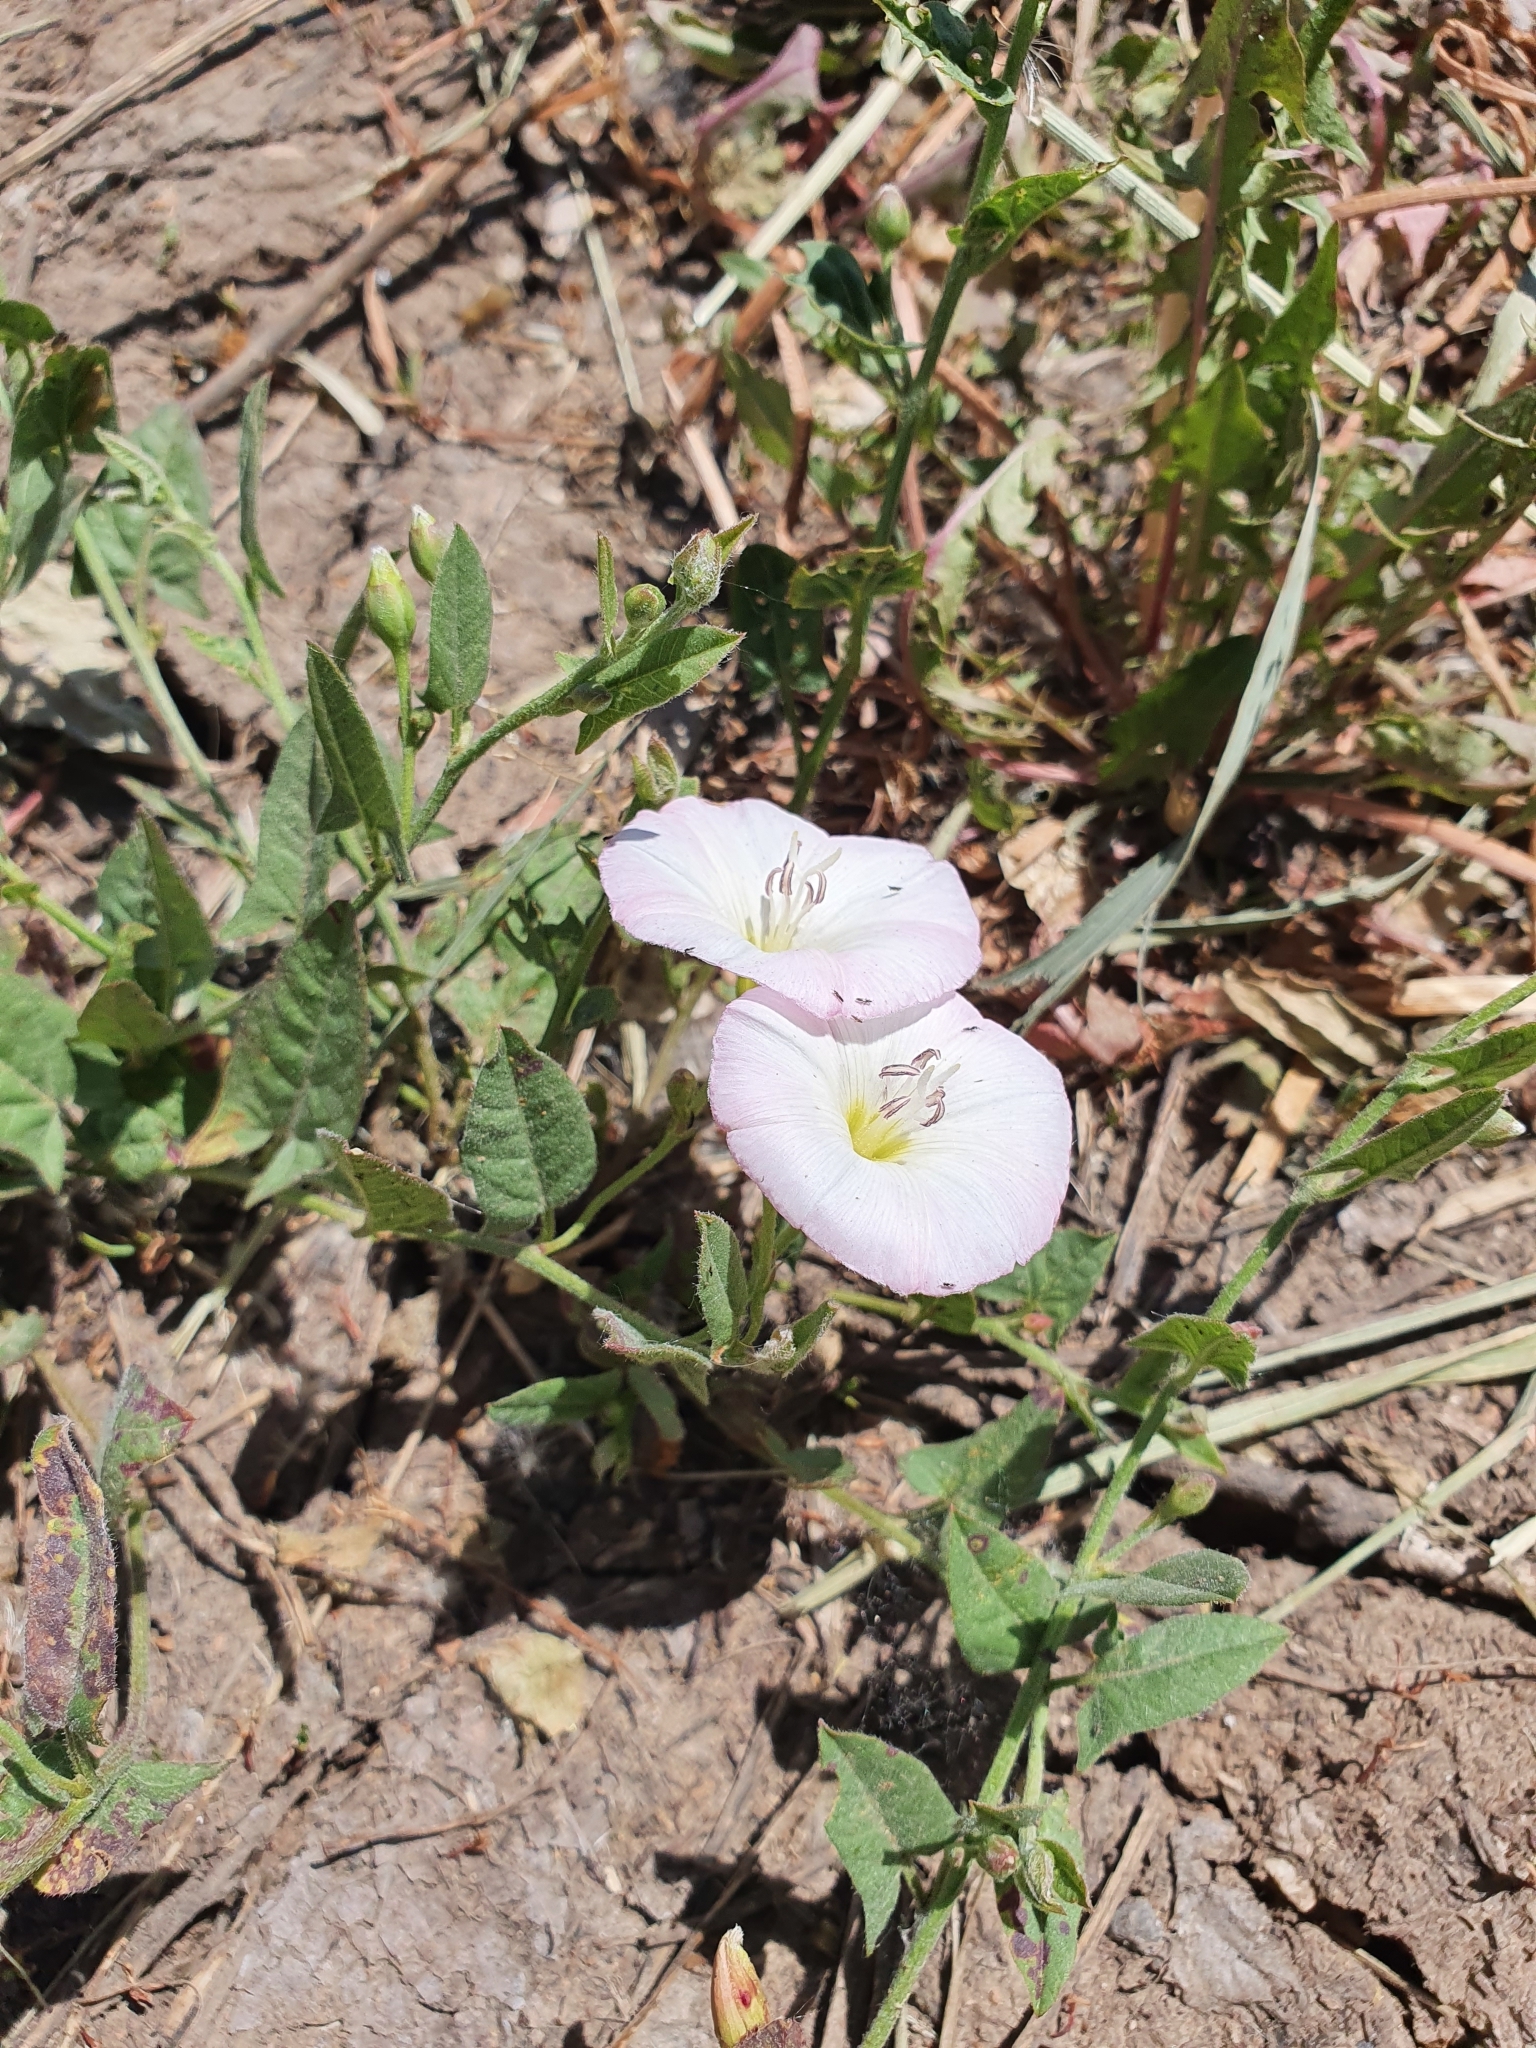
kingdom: Plantae
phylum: Tracheophyta
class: Magnoliopsida
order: Solanales
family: Convolvulaceae
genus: Convolvulus
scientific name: Convolvulus arvensis
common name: Field bindweed
